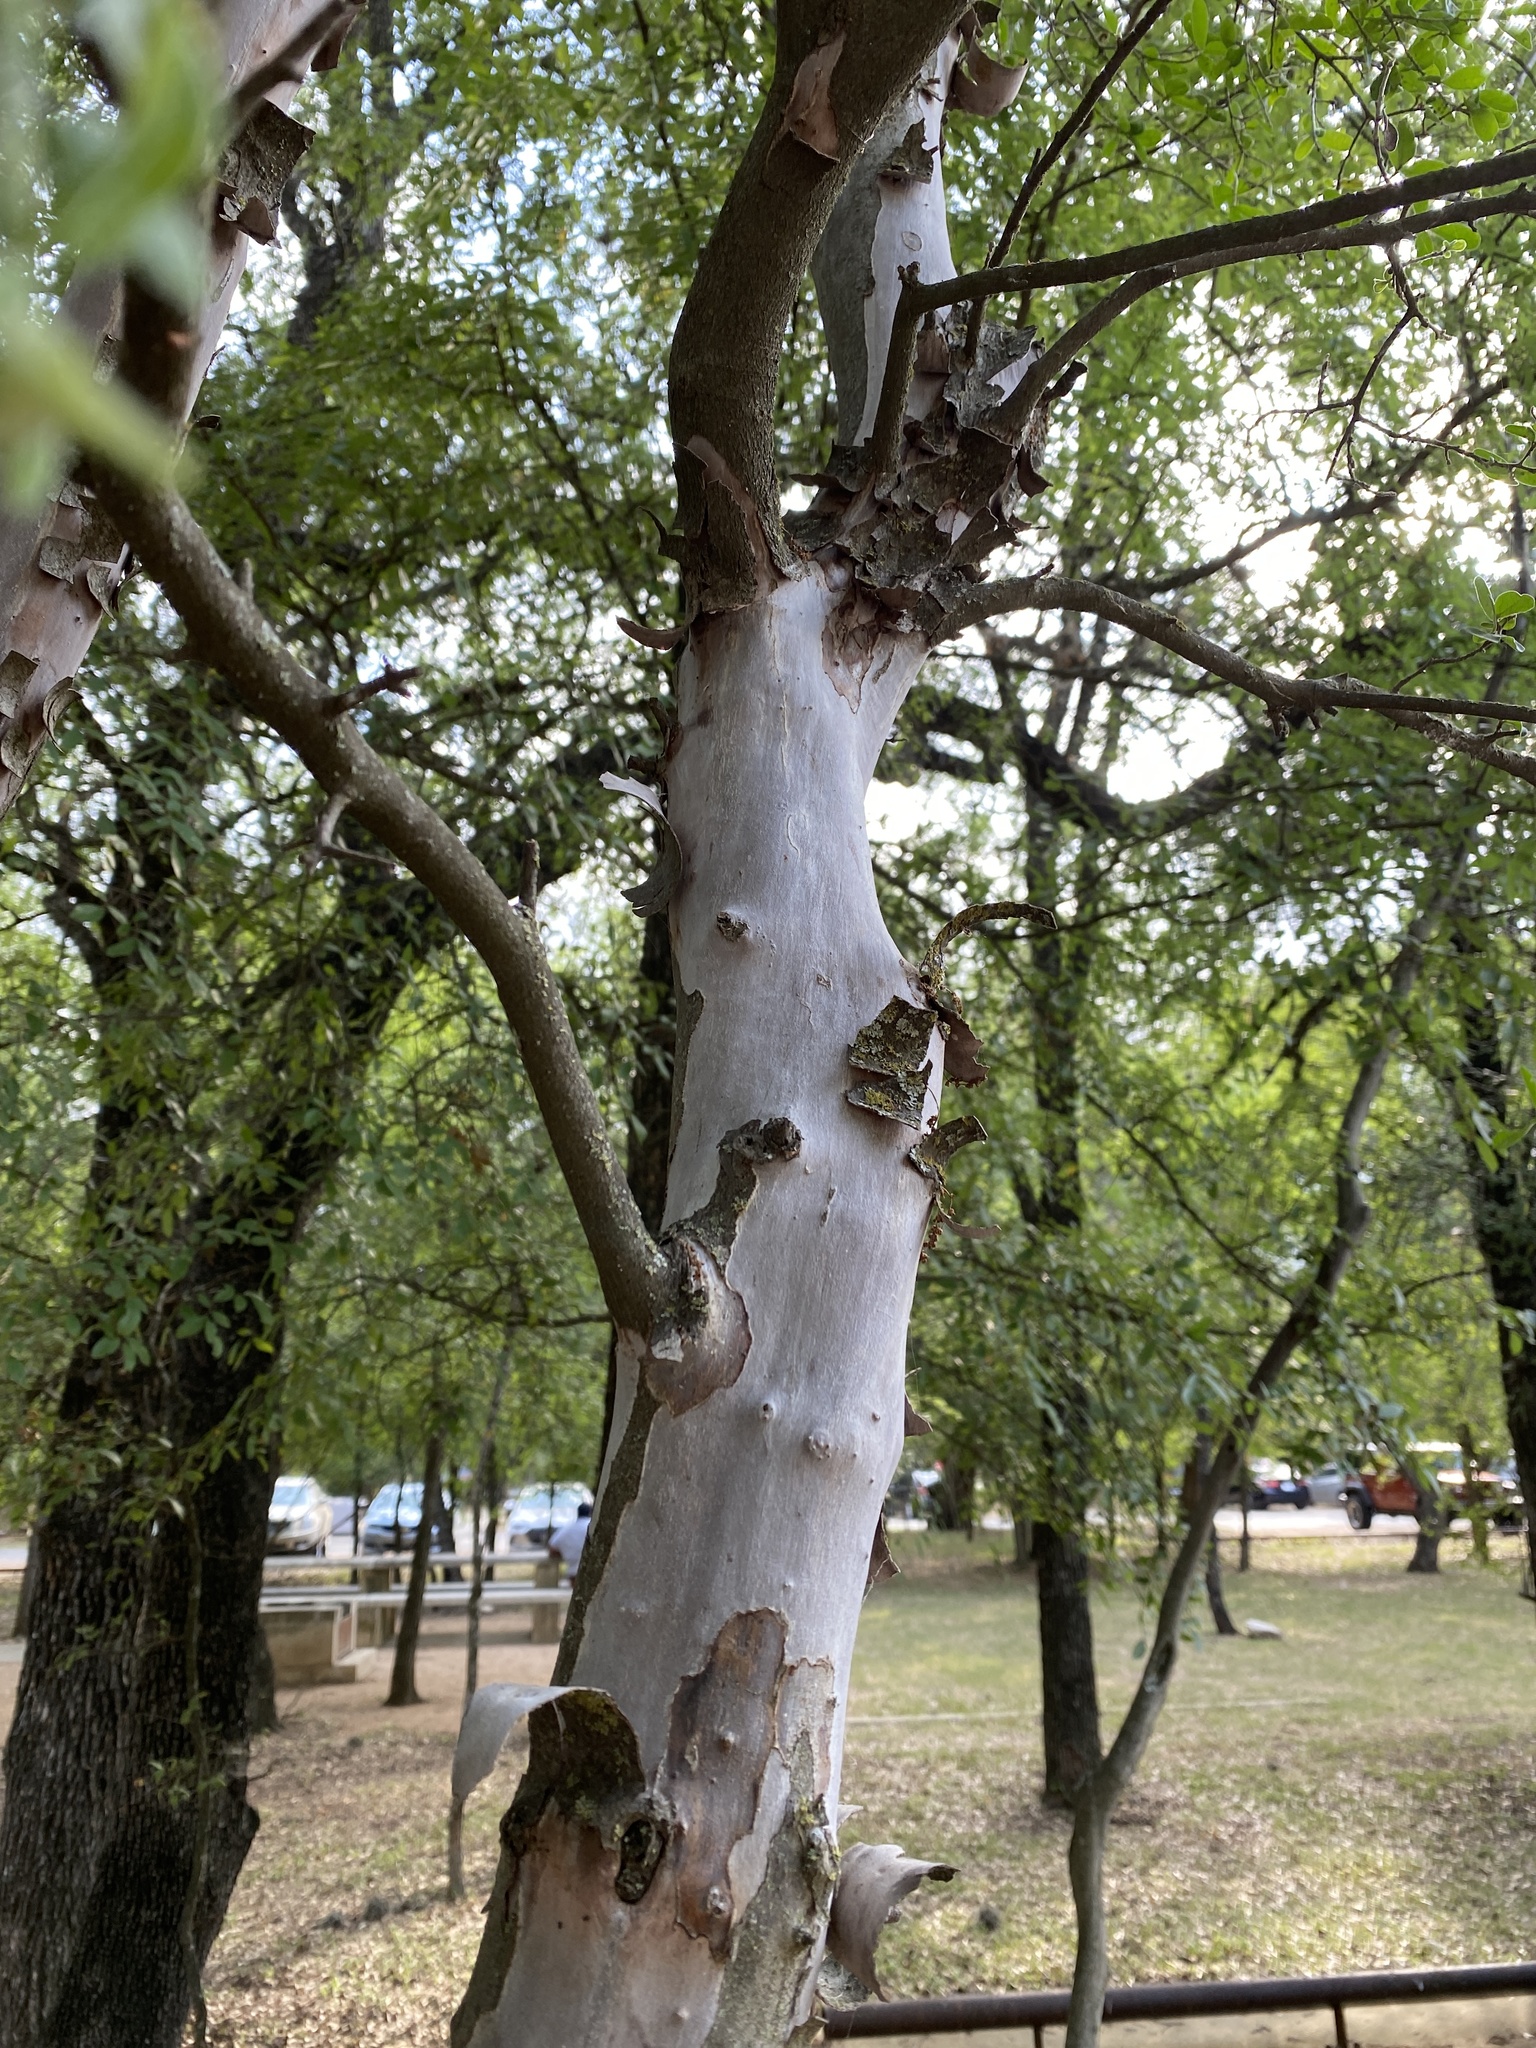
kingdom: Plantae
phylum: Tracheophyta
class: Magnoliopsida
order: Ericales
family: Ebenaceae
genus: Diospyros
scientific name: Diospyros texana
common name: Texas persimmon
